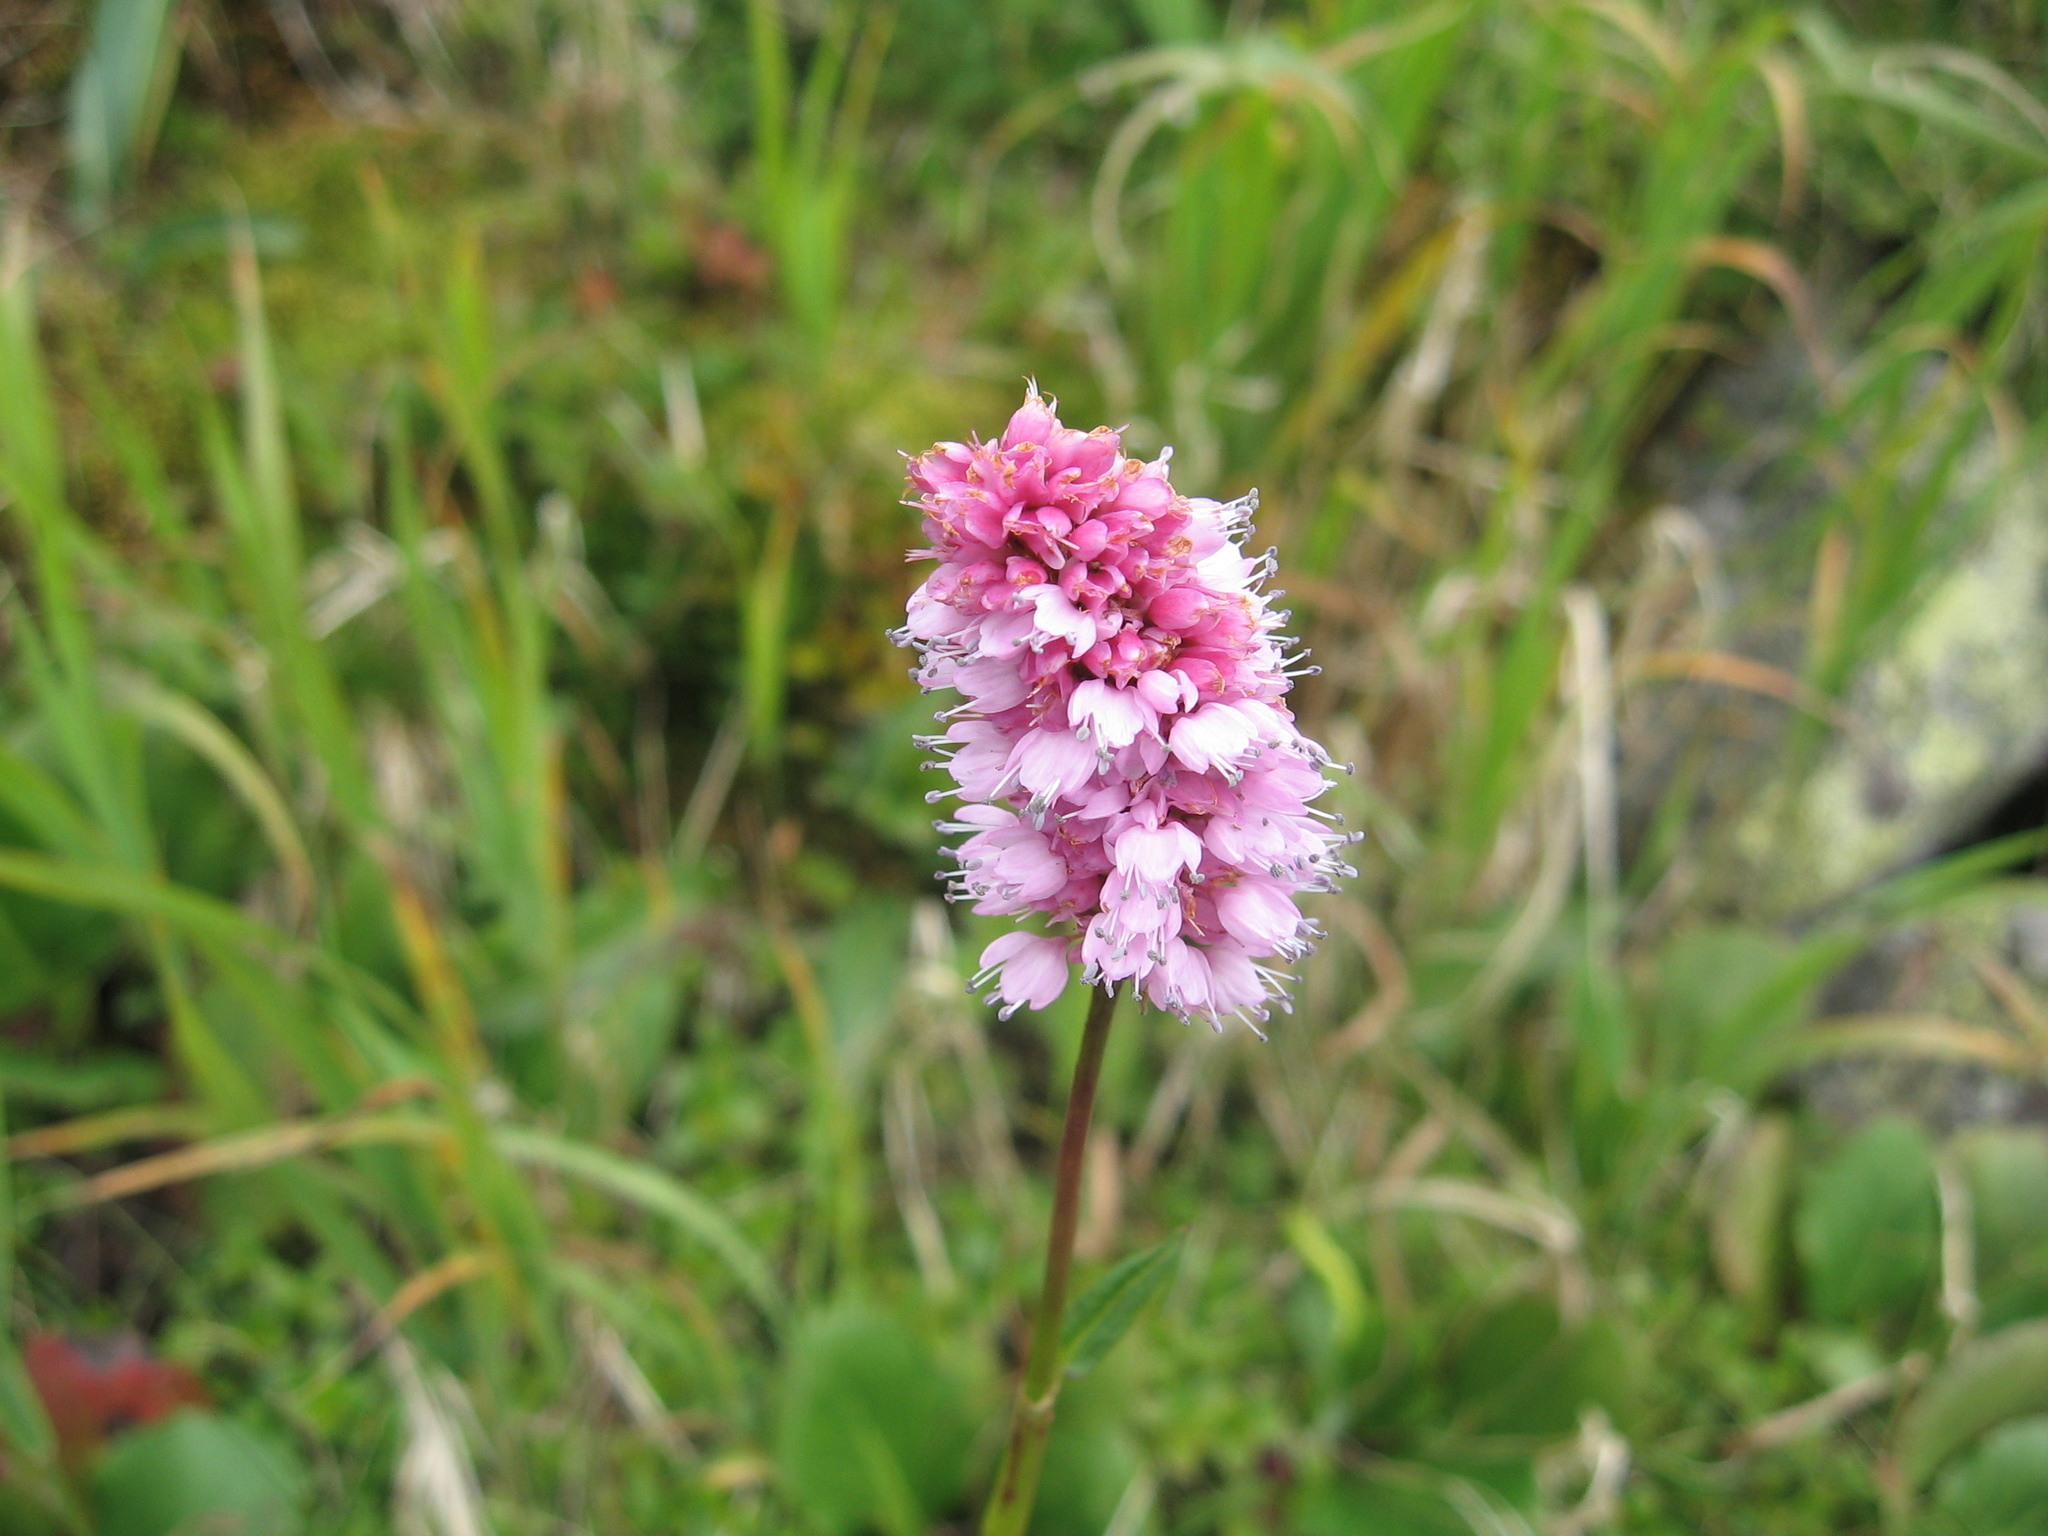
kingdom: Plantae
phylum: Tracheophyta
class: Magnoliopsida
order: Caryophyllales
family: Polygonaceae
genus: Bistorta
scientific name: Bistorta officinalis
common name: Common bistort
